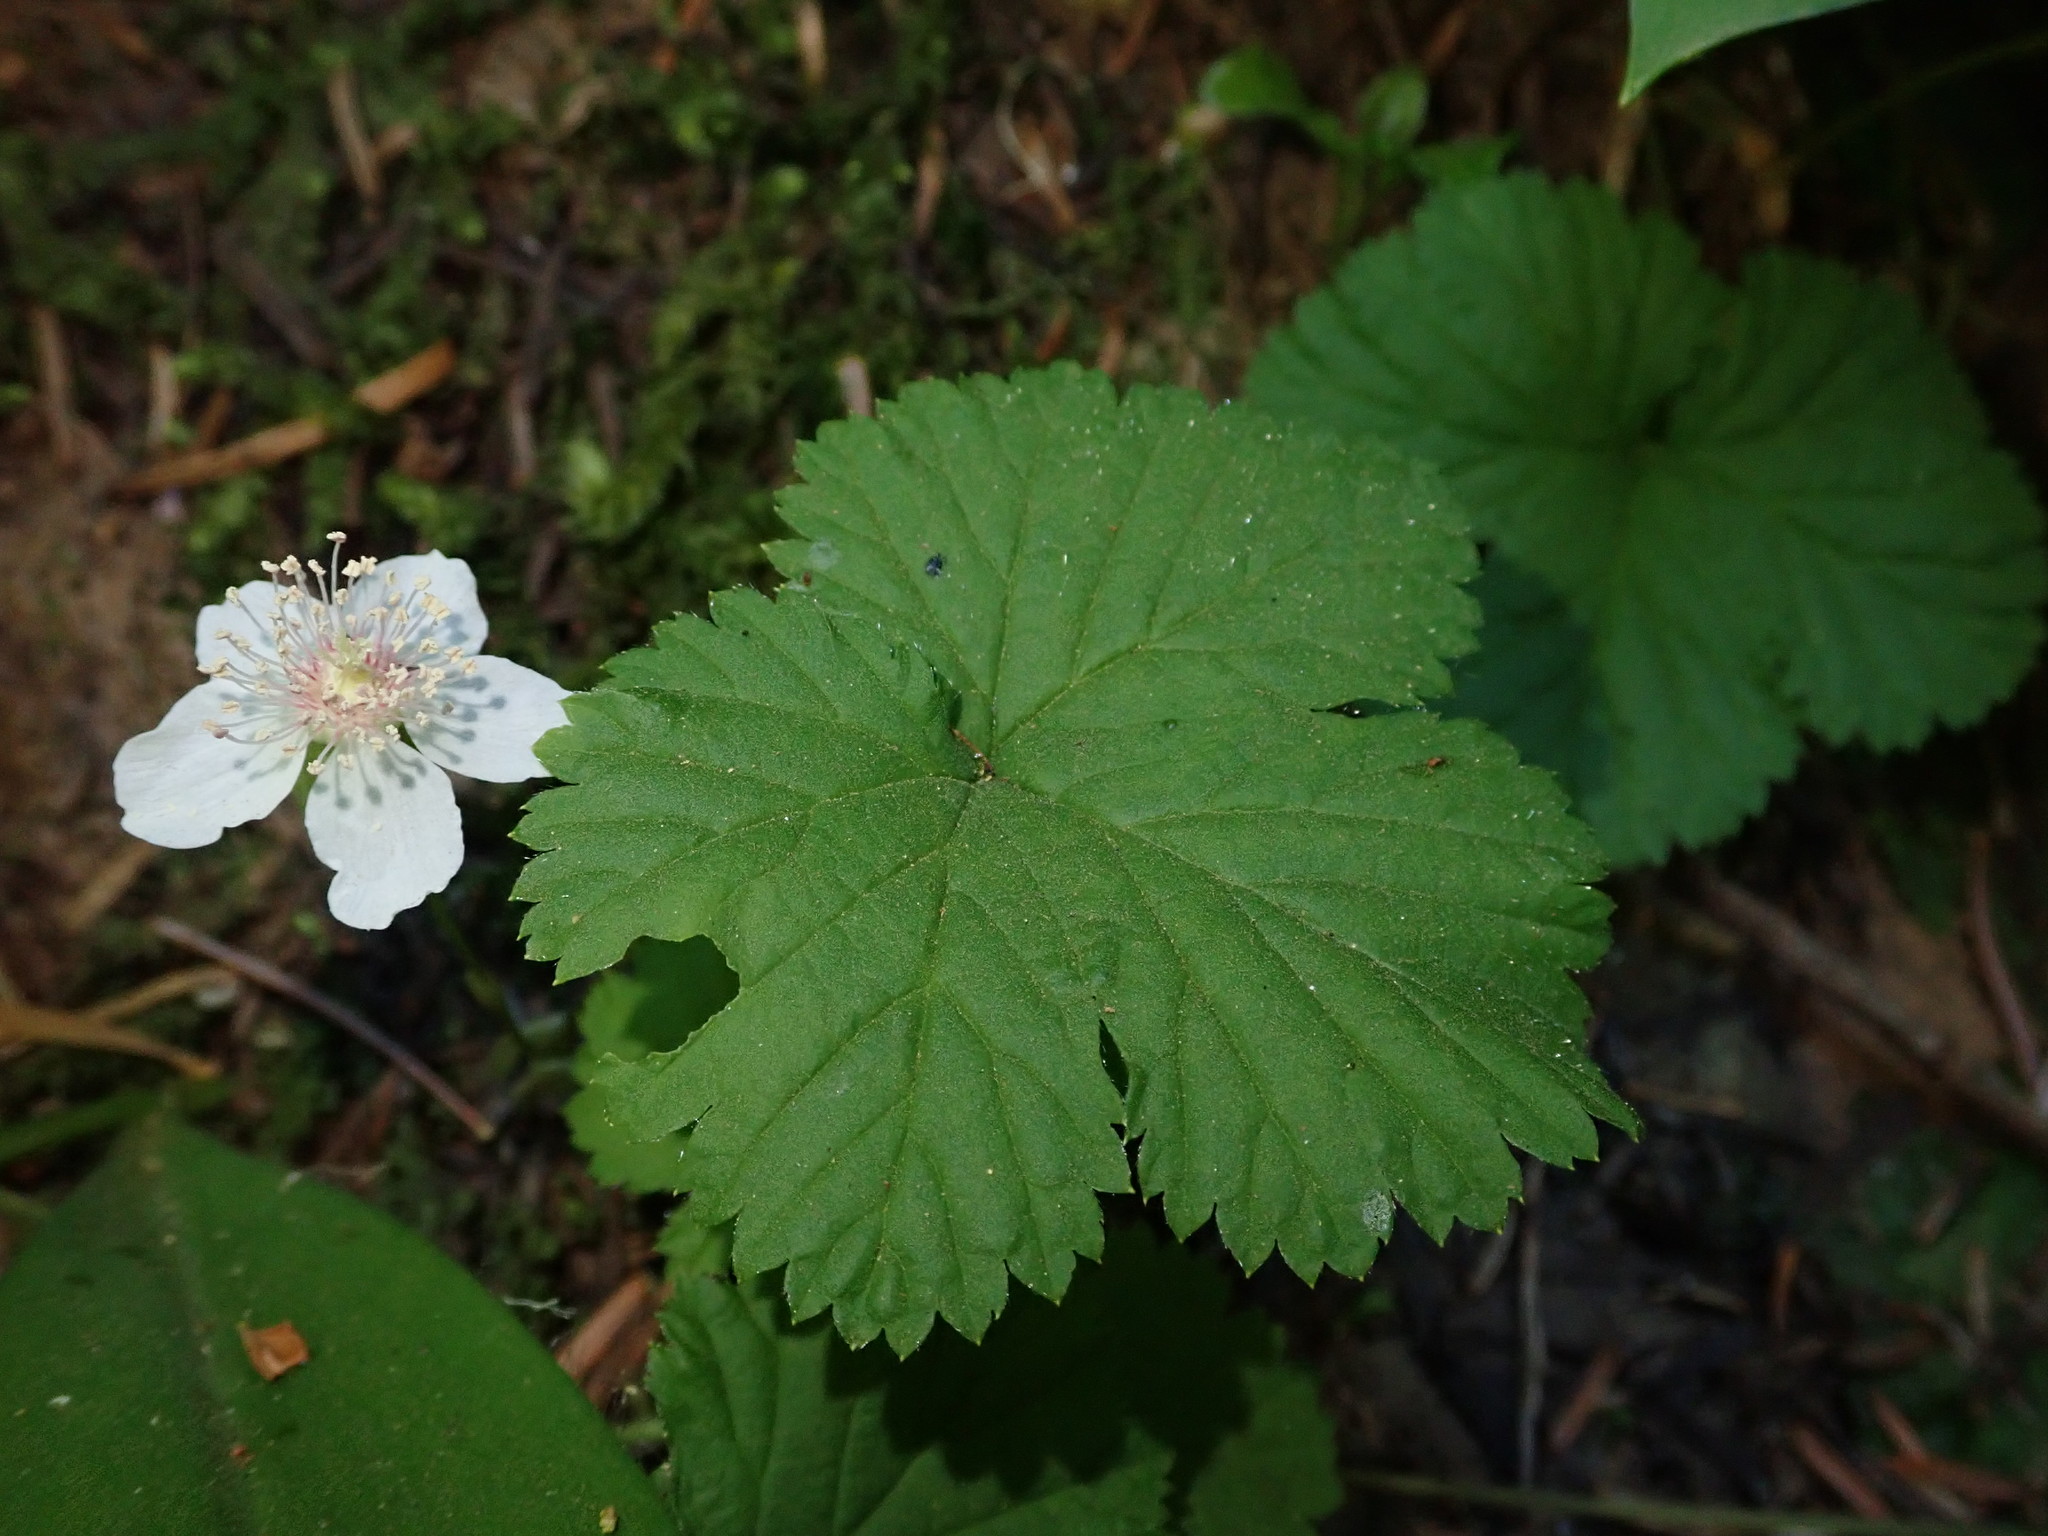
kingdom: Plantae
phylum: Tracheophyta
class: Magnoliopsida
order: Rosales
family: Rosaceae
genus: Rubus
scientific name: Rubus lasiococcus
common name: Dwarf bramble
